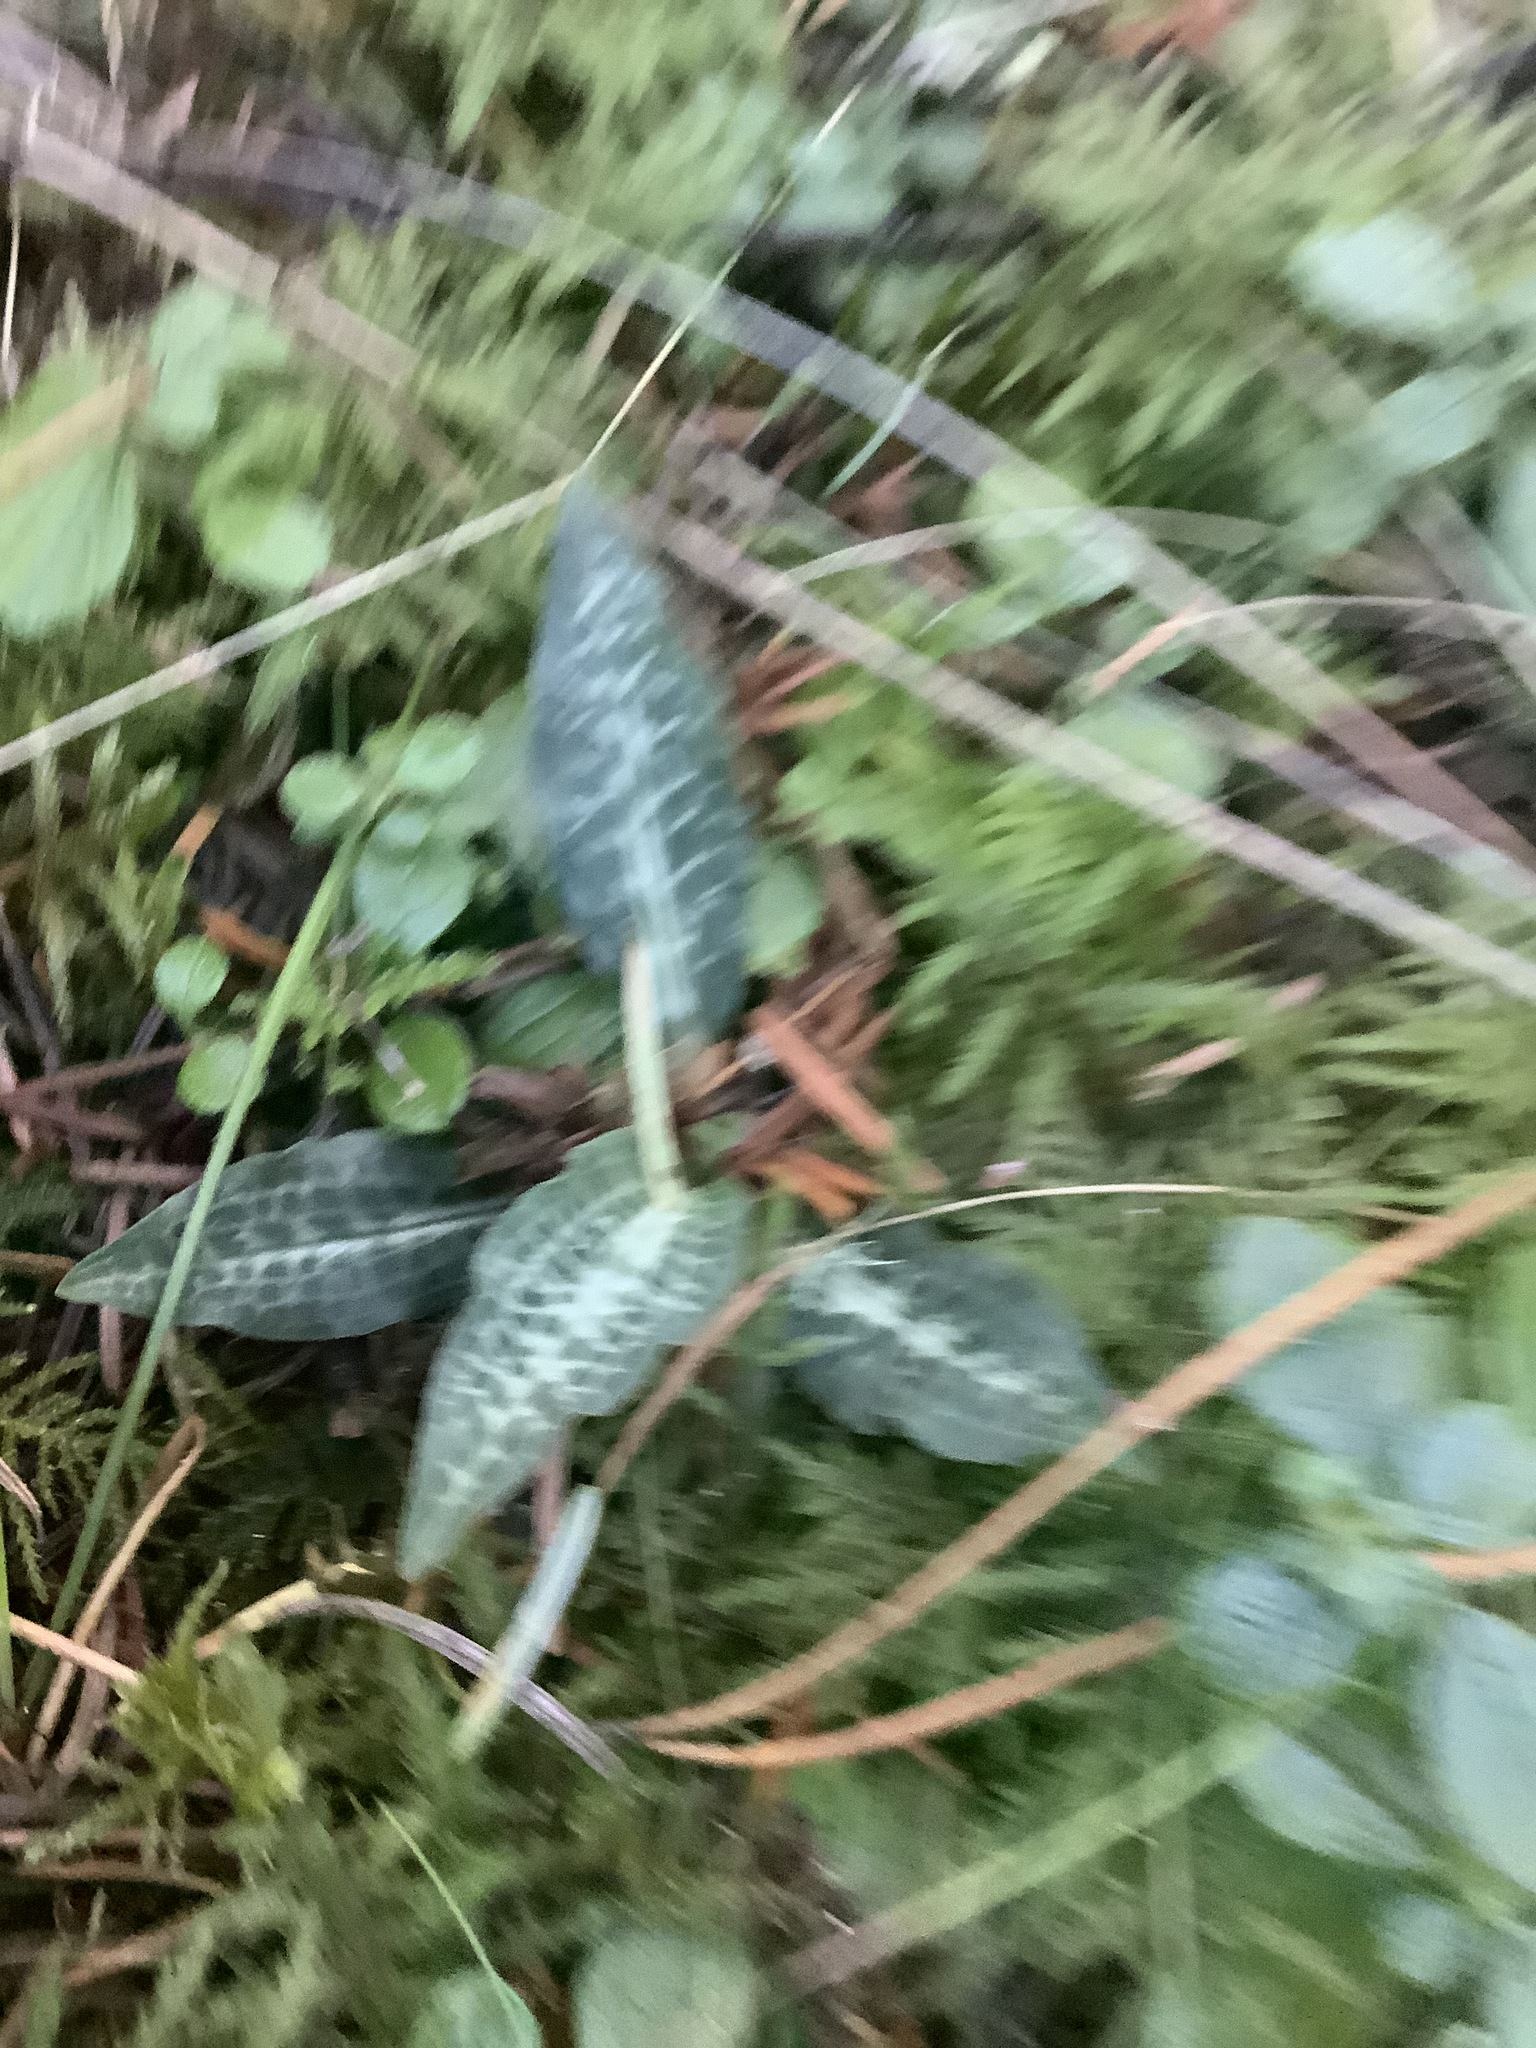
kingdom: Plantae
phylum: Tracheophyta
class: Liliopsida
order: Asparagales
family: Orchidaceae
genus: Goodyera
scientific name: Goodyera oblongifolia
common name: Giant rattlesnake-plantain
